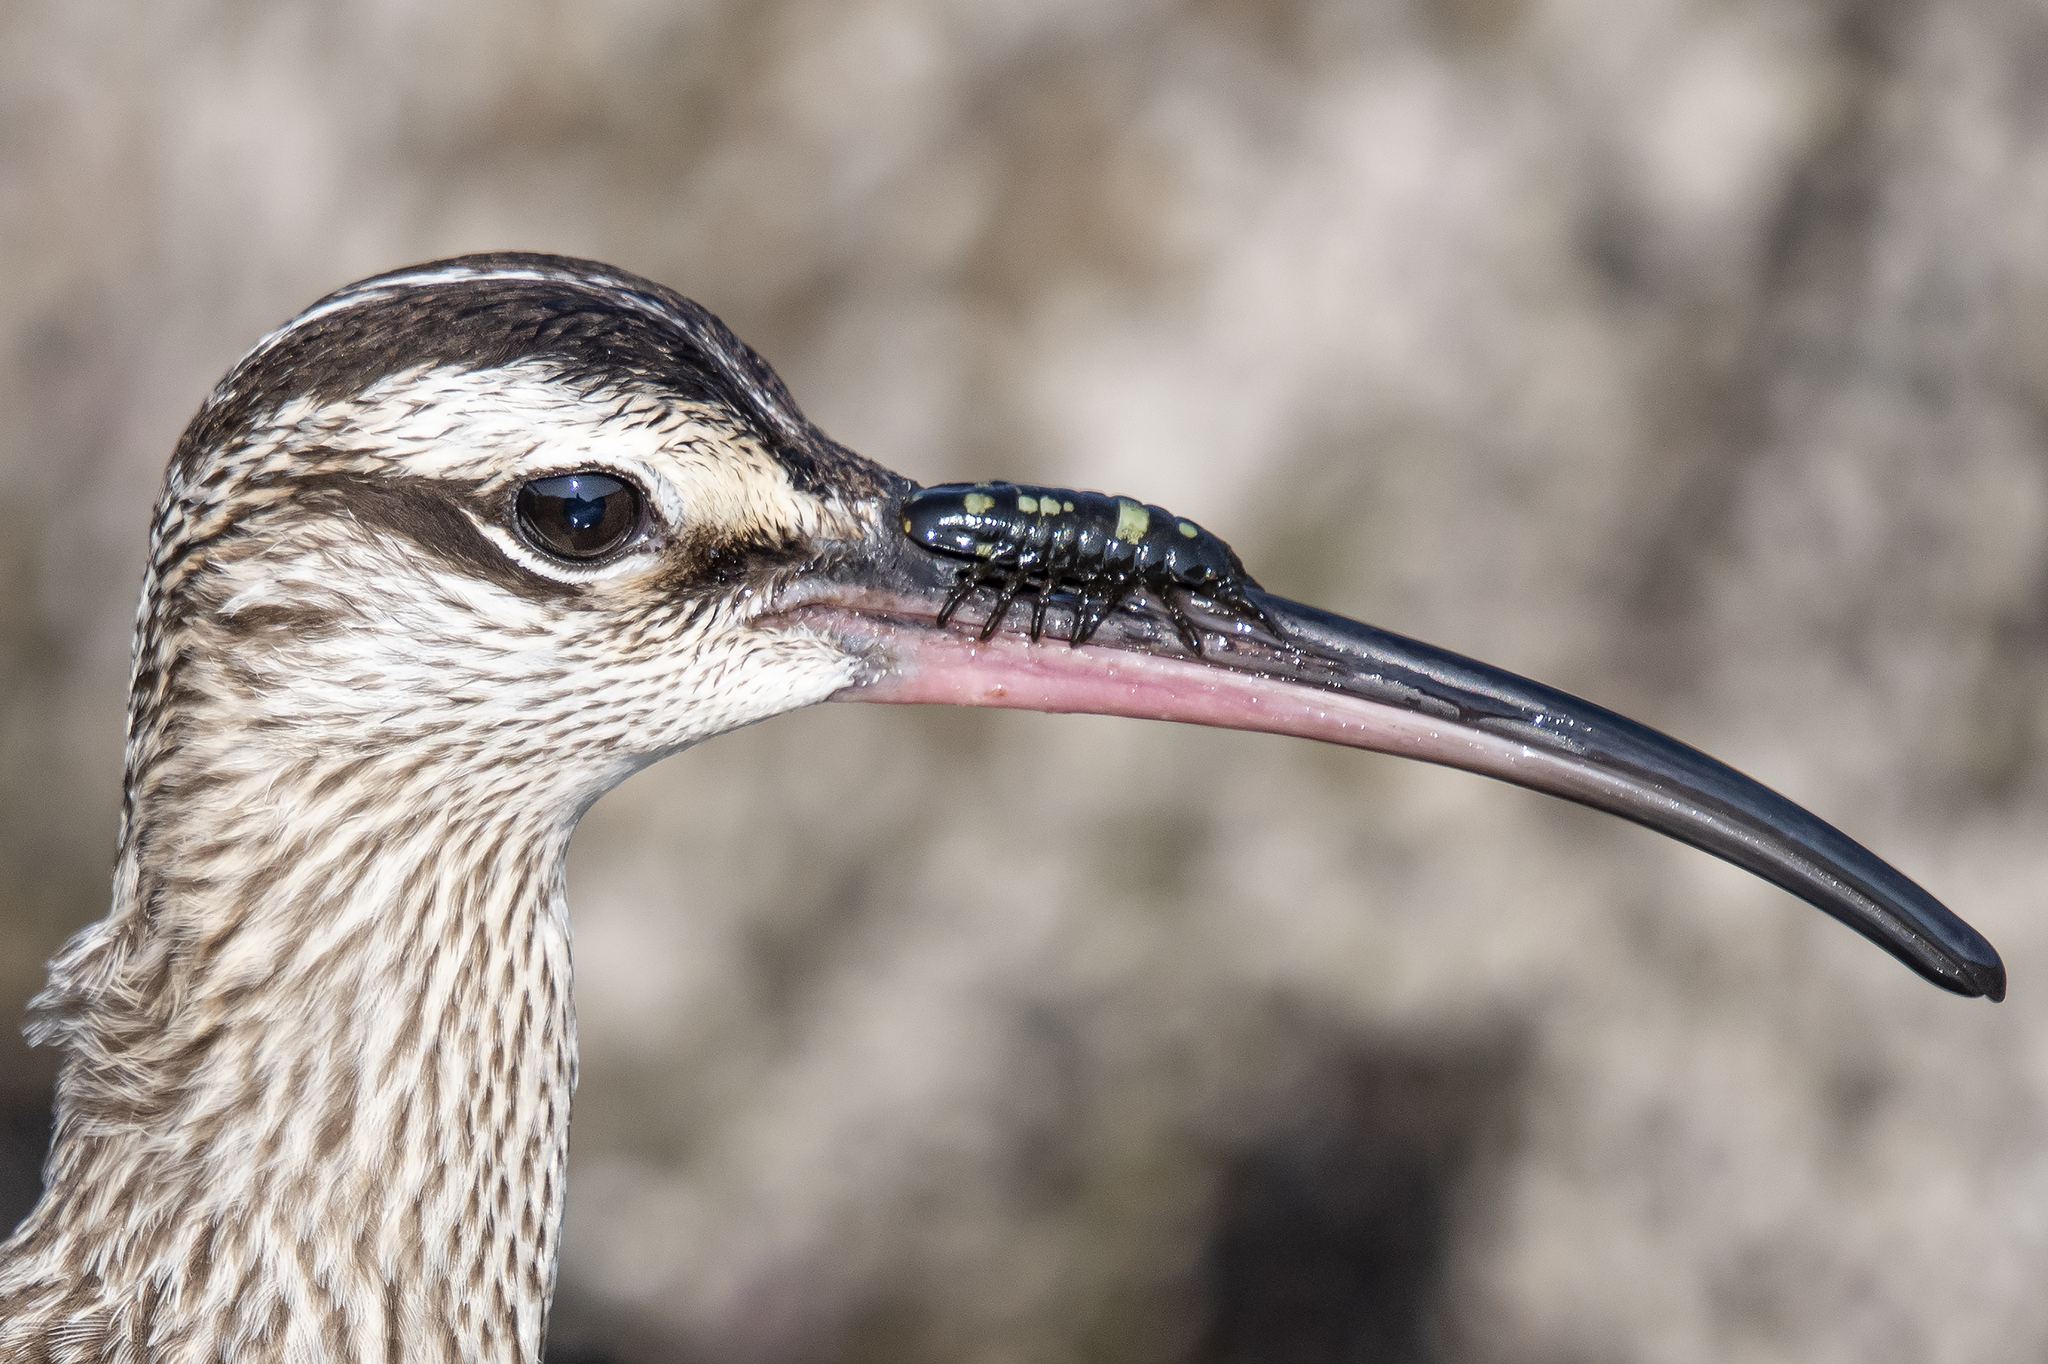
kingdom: Animalia
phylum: Arthropoda
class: Malacostraca
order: Isopoda
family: Idoteidae
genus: Pentidotea
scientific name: Pentidotea wosnesenskii
